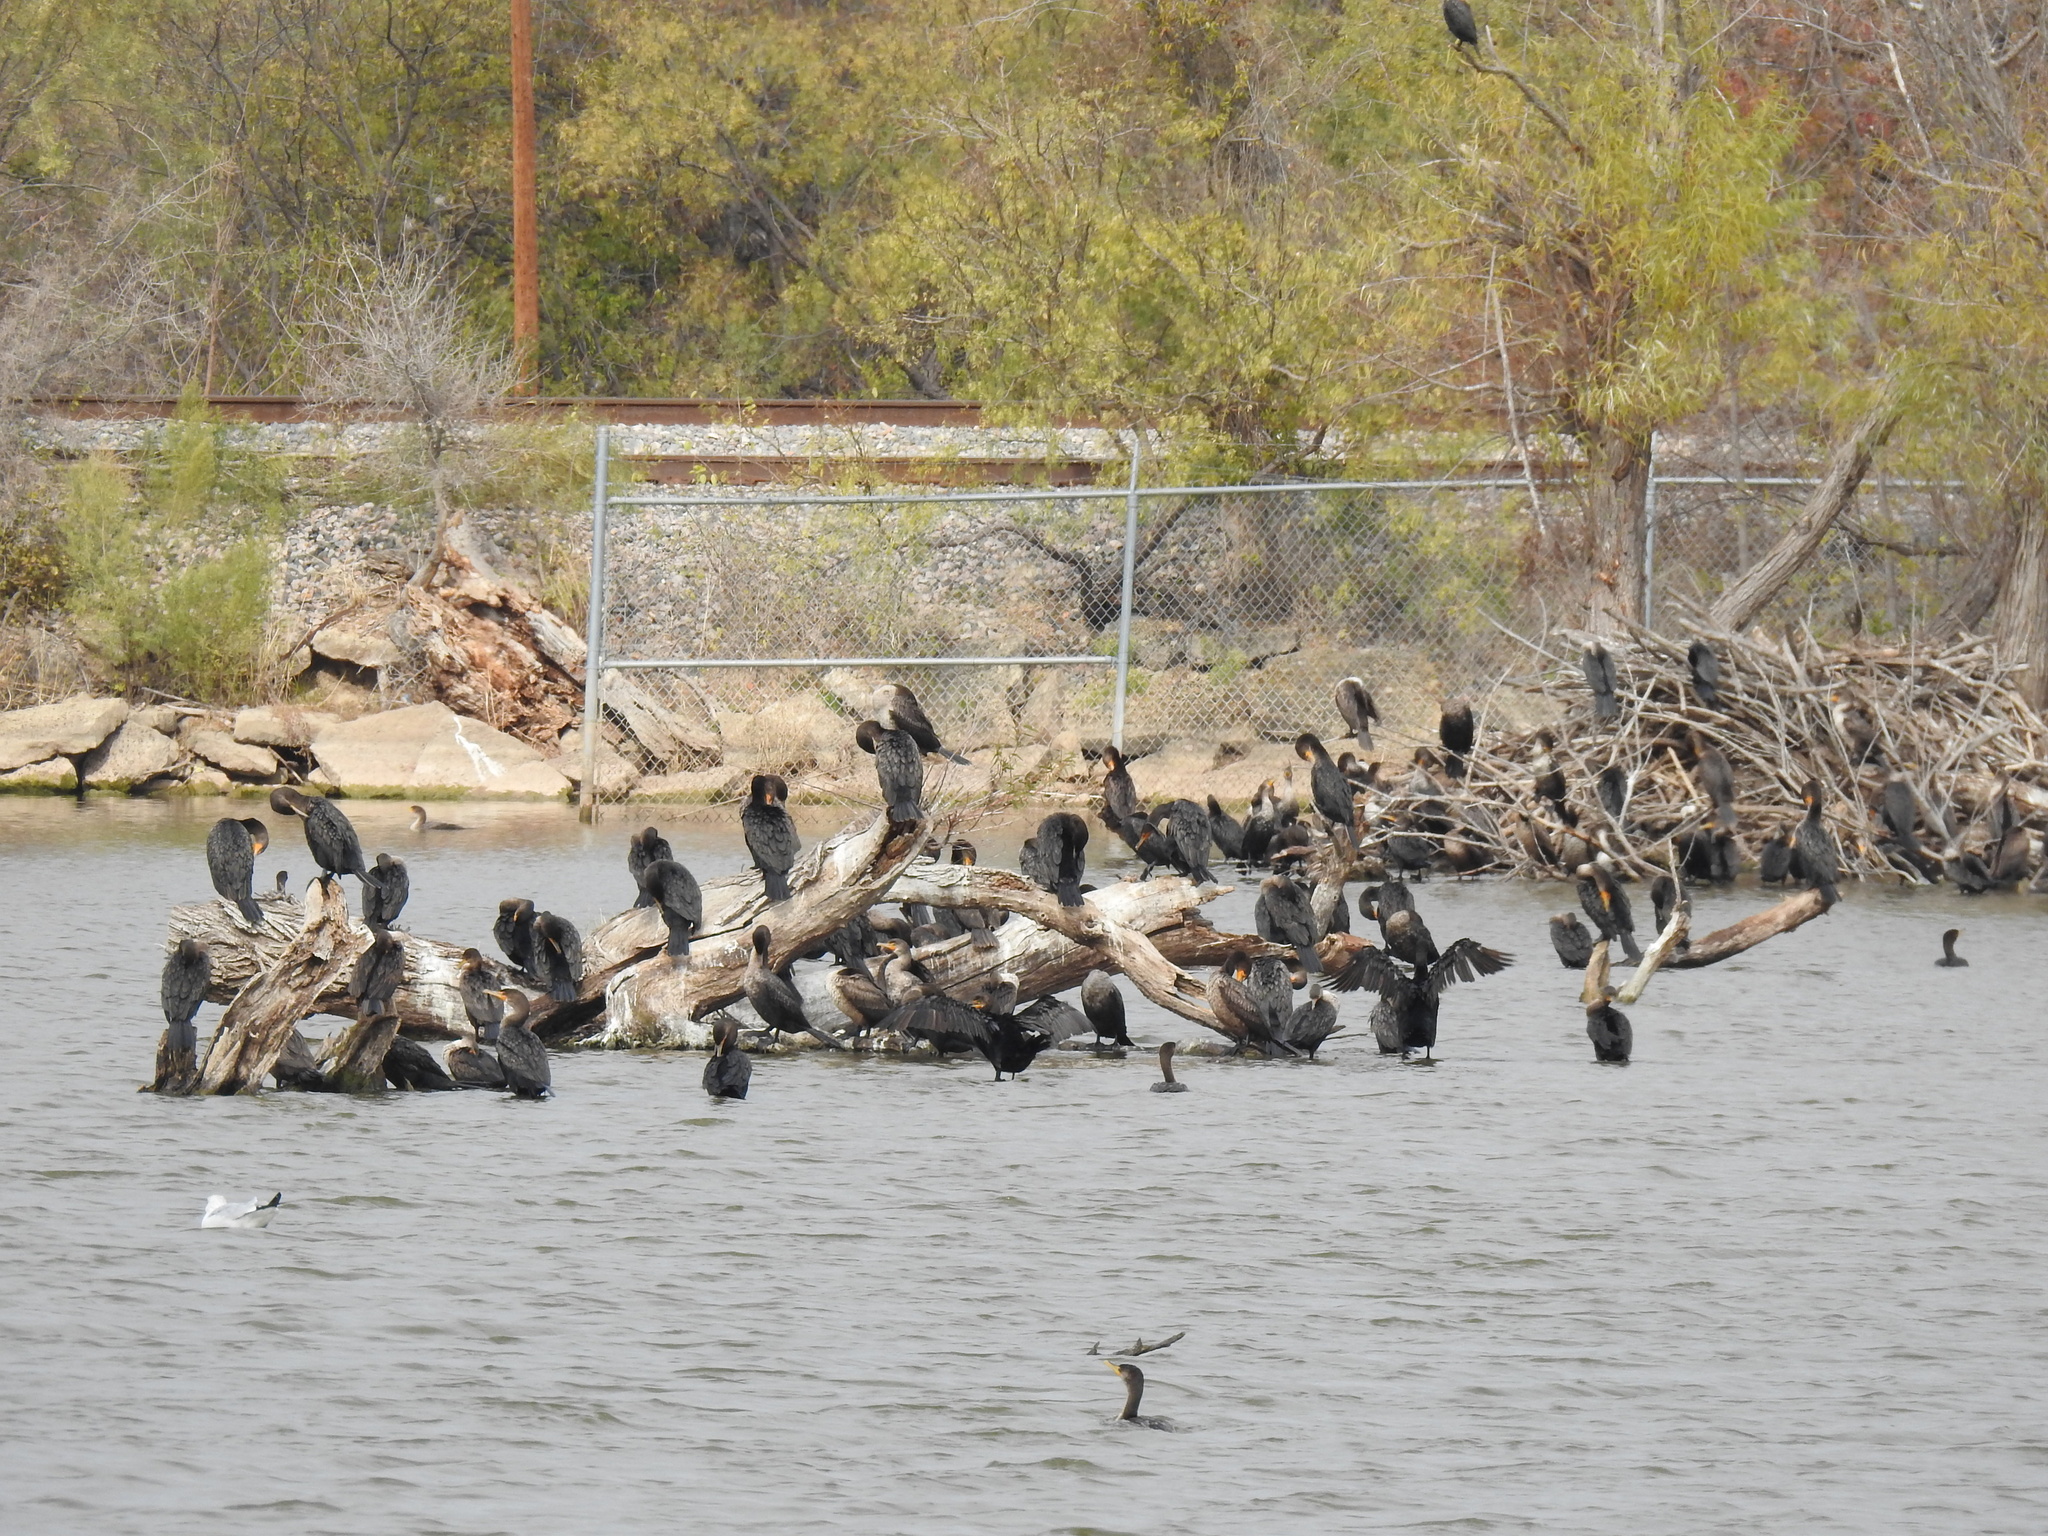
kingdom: Animalia
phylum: Chordata
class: Aves
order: Suliformes
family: Phalacrocoracidae
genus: Phalacrocorax
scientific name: Phalacrocorax auritus
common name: Double-crested cormorant
